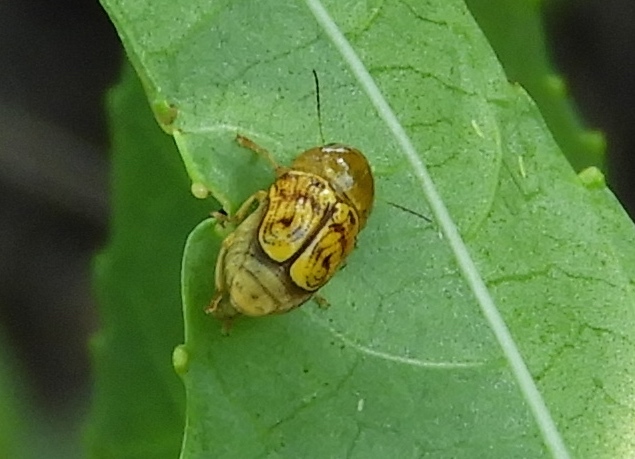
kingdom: Animalia
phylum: Arthropoda
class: Insecta
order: Coleoptera
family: Chrysomelidae
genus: Griburius
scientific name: Griburius puncturatus
